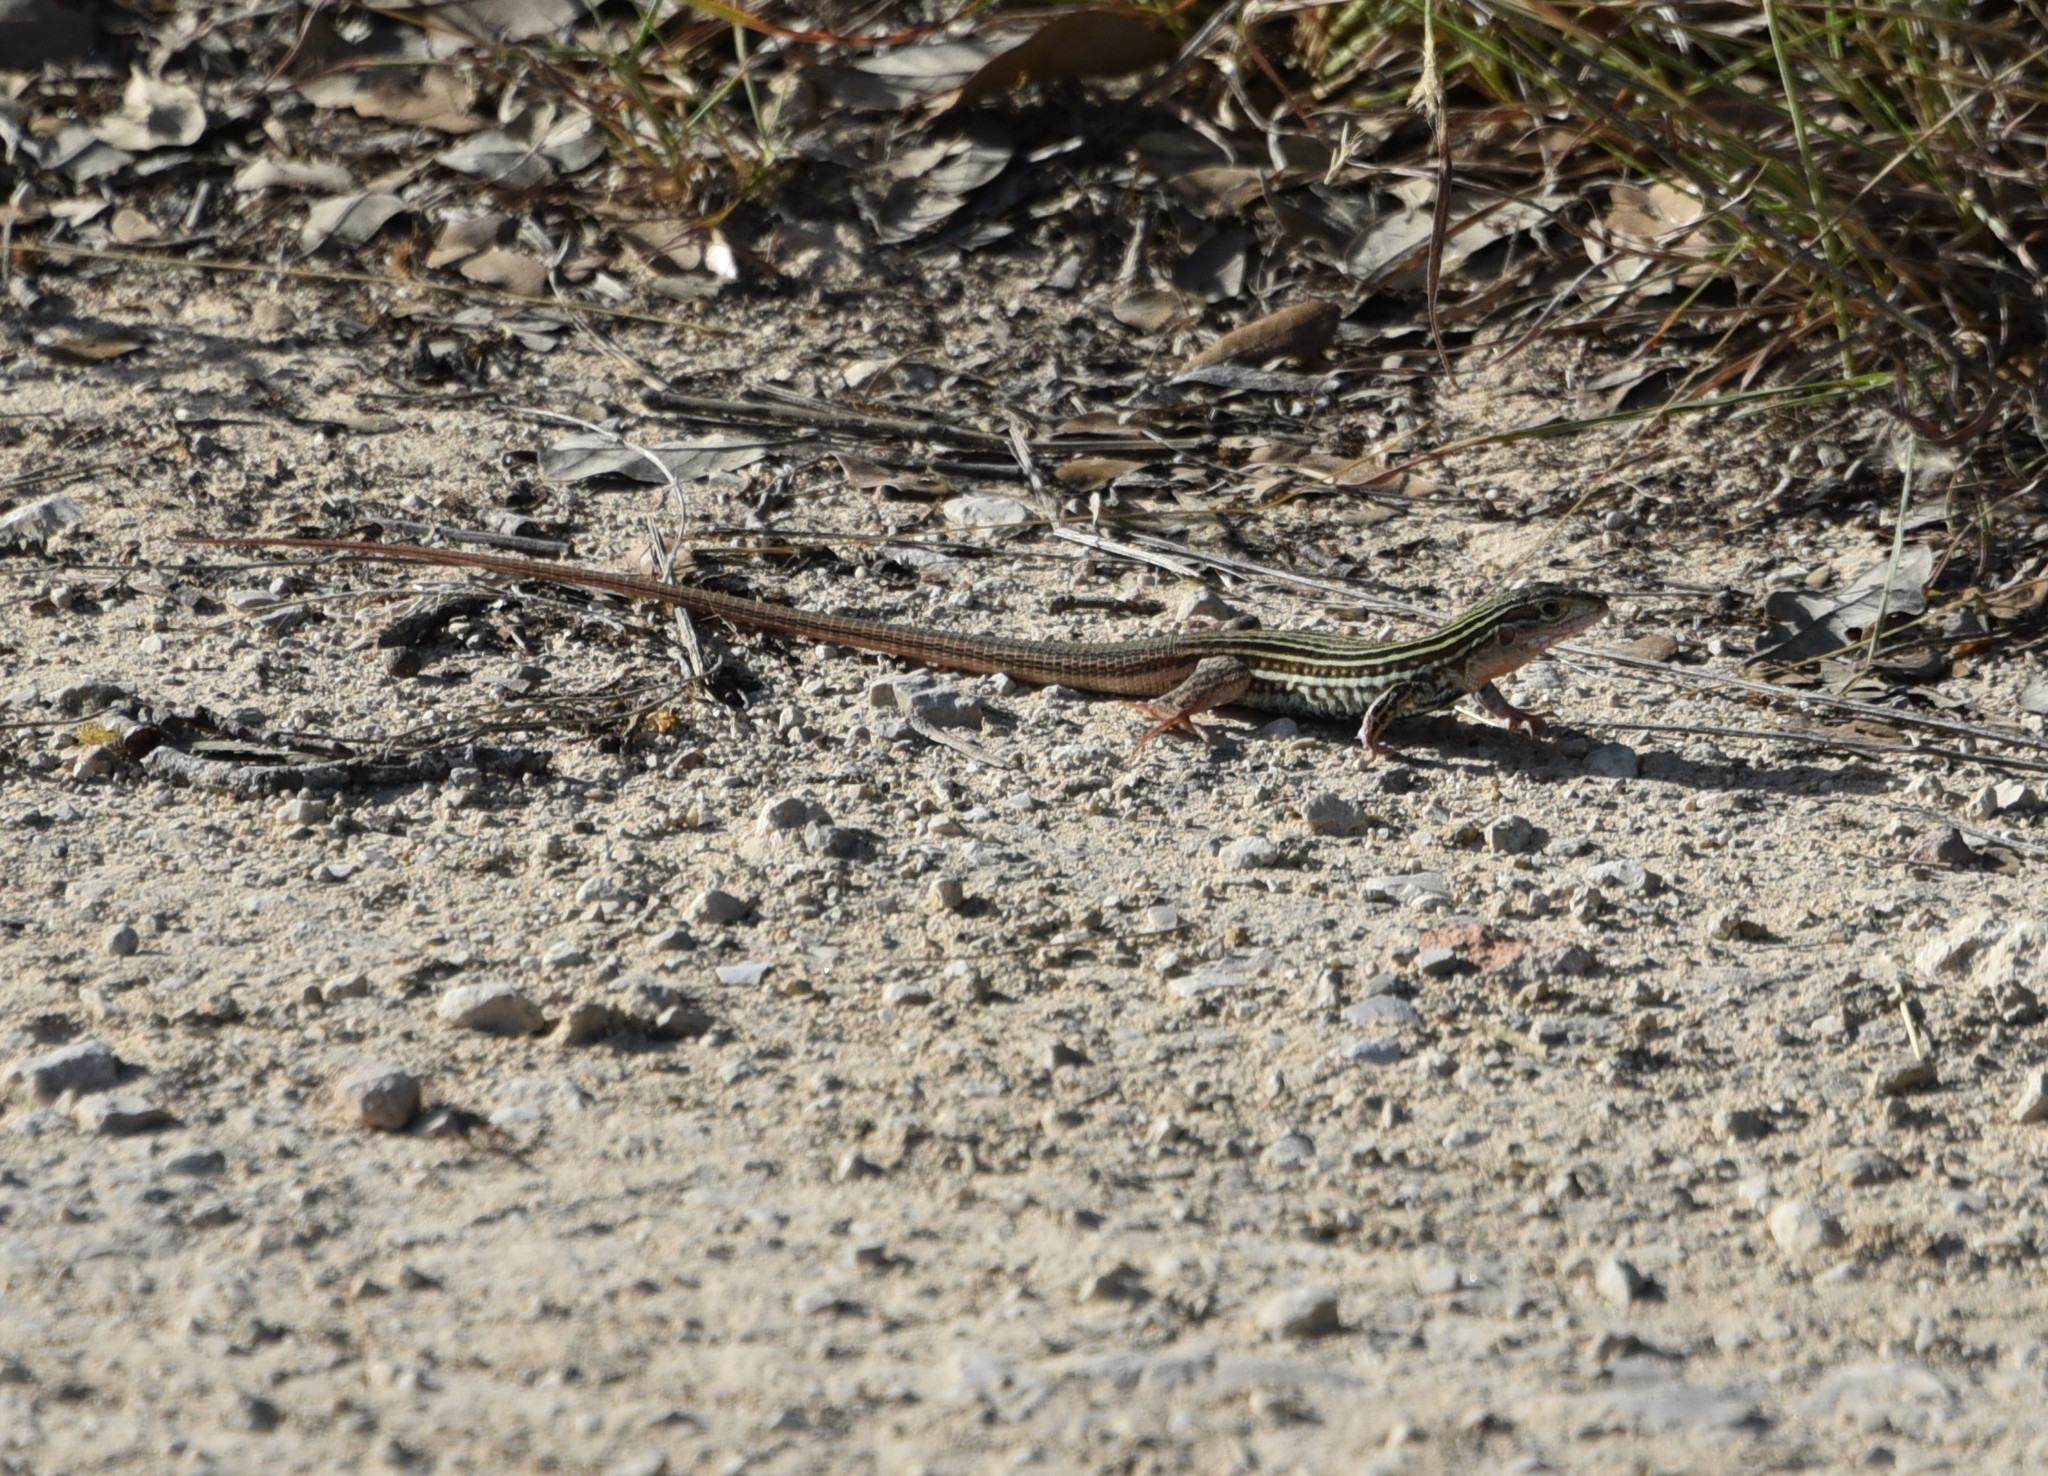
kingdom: Animalia
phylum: Chordata
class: Squamata
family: Teiidae
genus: Aspidoscelis
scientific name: Aspidoscelis gularis
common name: Eastern spotted whiptail
